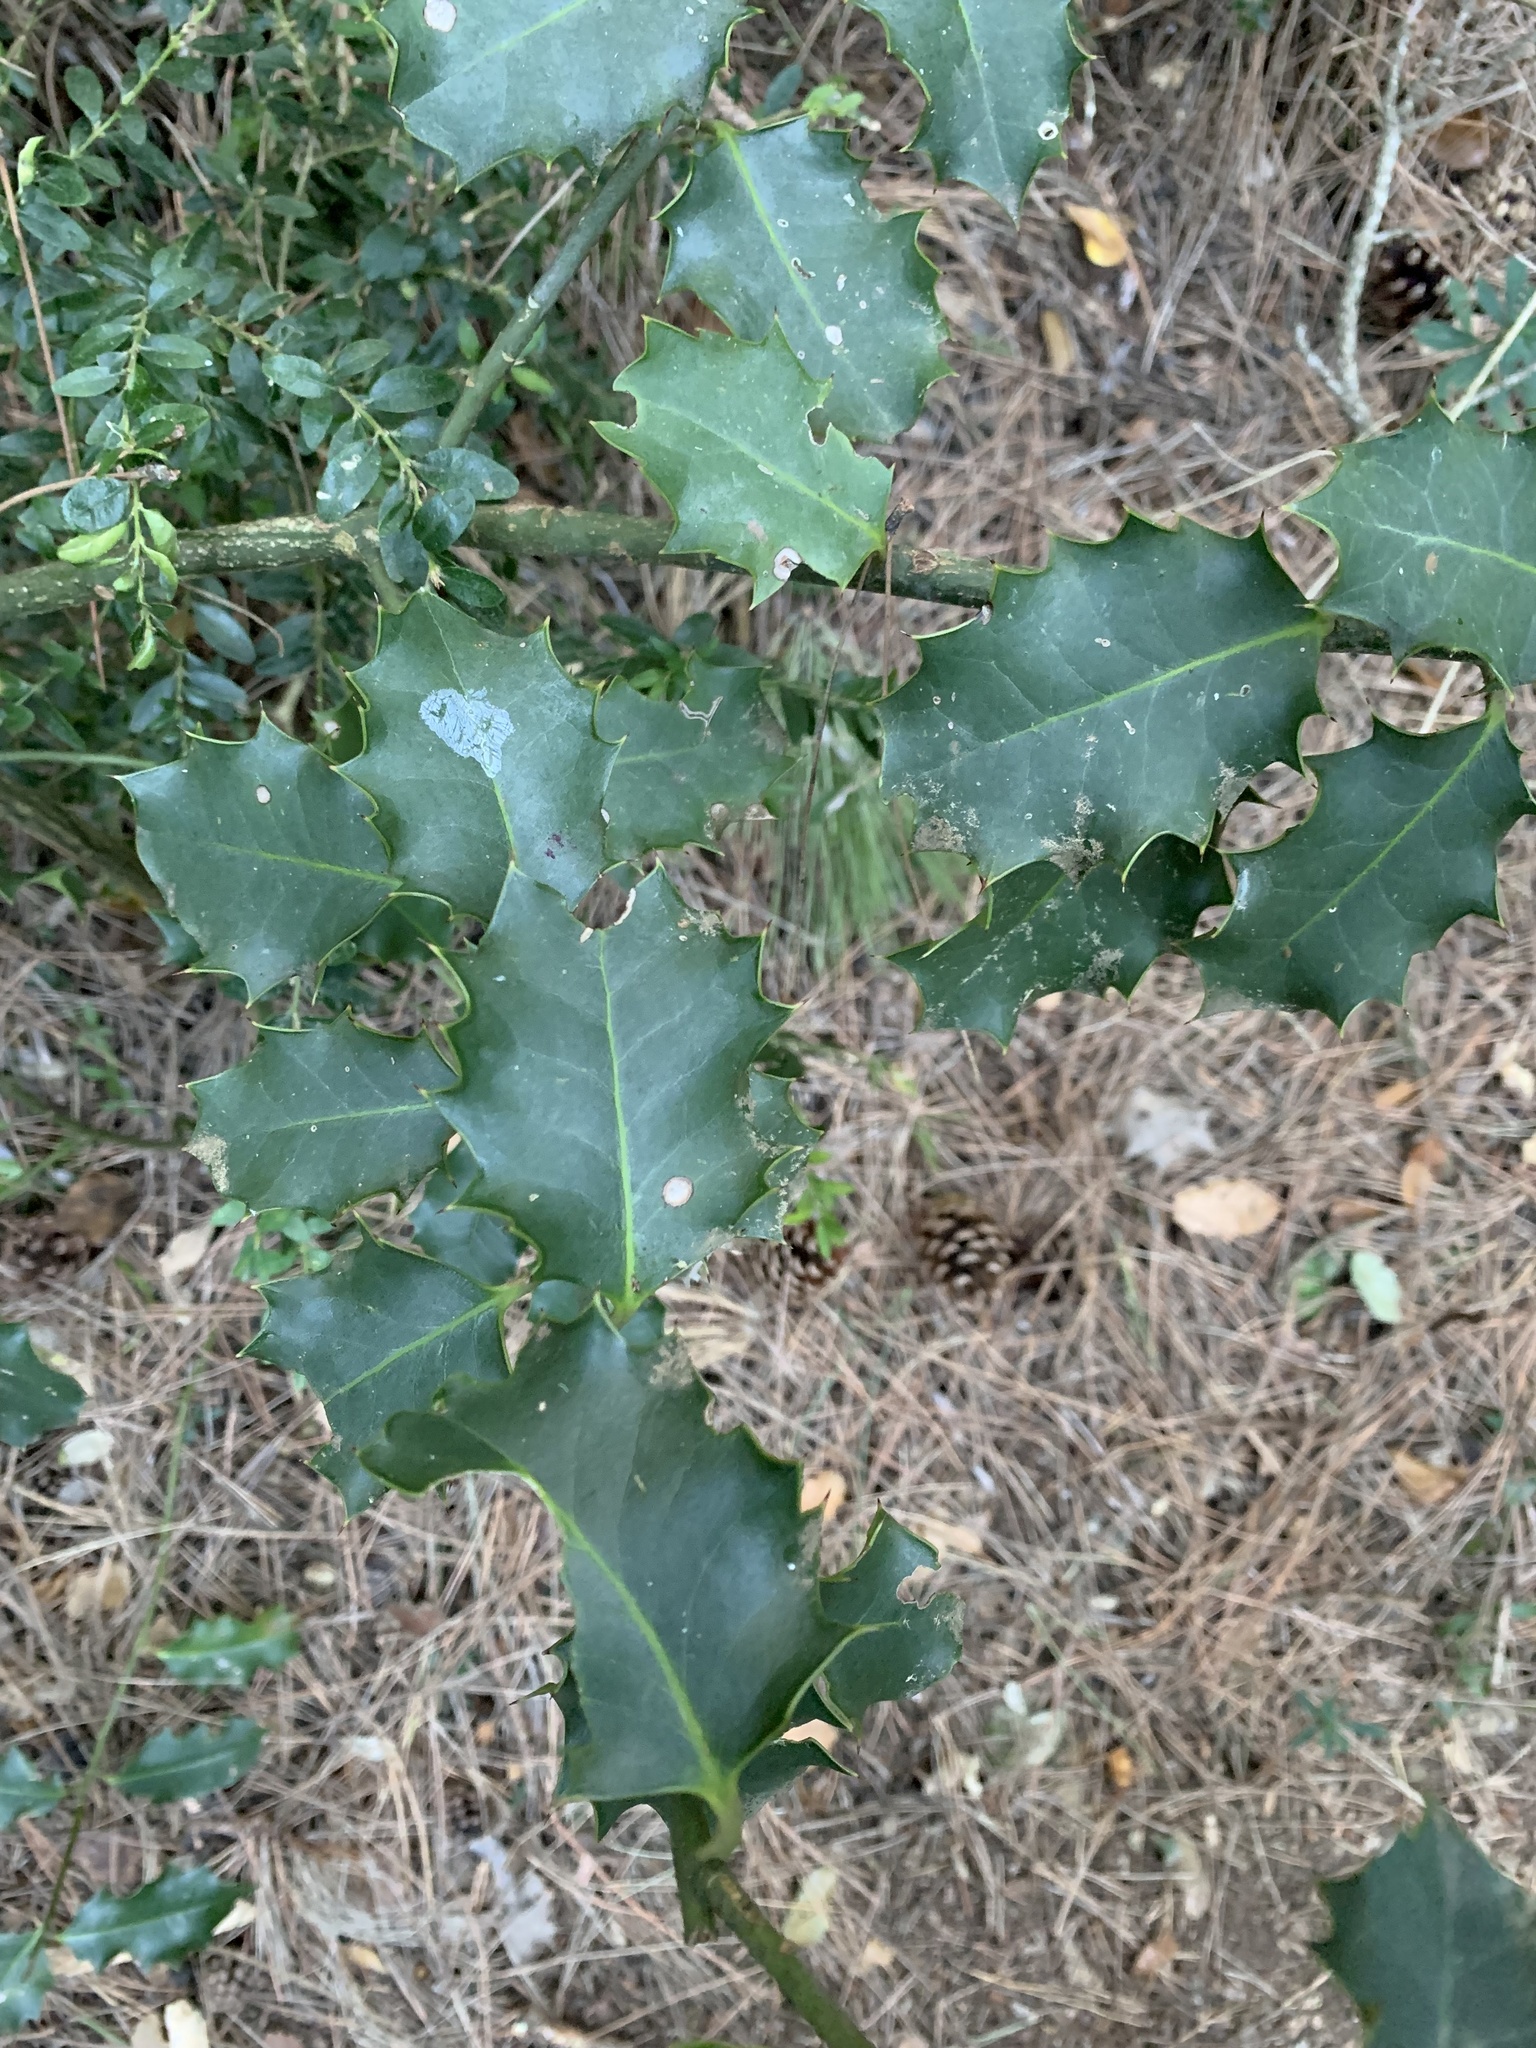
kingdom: Plantae
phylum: Tracheophyta
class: Magnoliopsida
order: Aquifoliales
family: Aquifoliaceae
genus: Ilex
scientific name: Ilex aquifolium
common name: English holly
